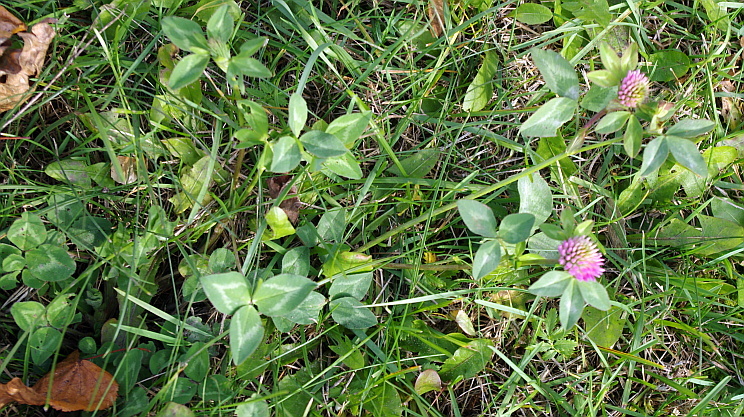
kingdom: Plantae
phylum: Tracheophyta
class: Magnoliopsida
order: Fabales
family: Fabaceae
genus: Trifolium
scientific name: Trifolium pratense
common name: Red clover
